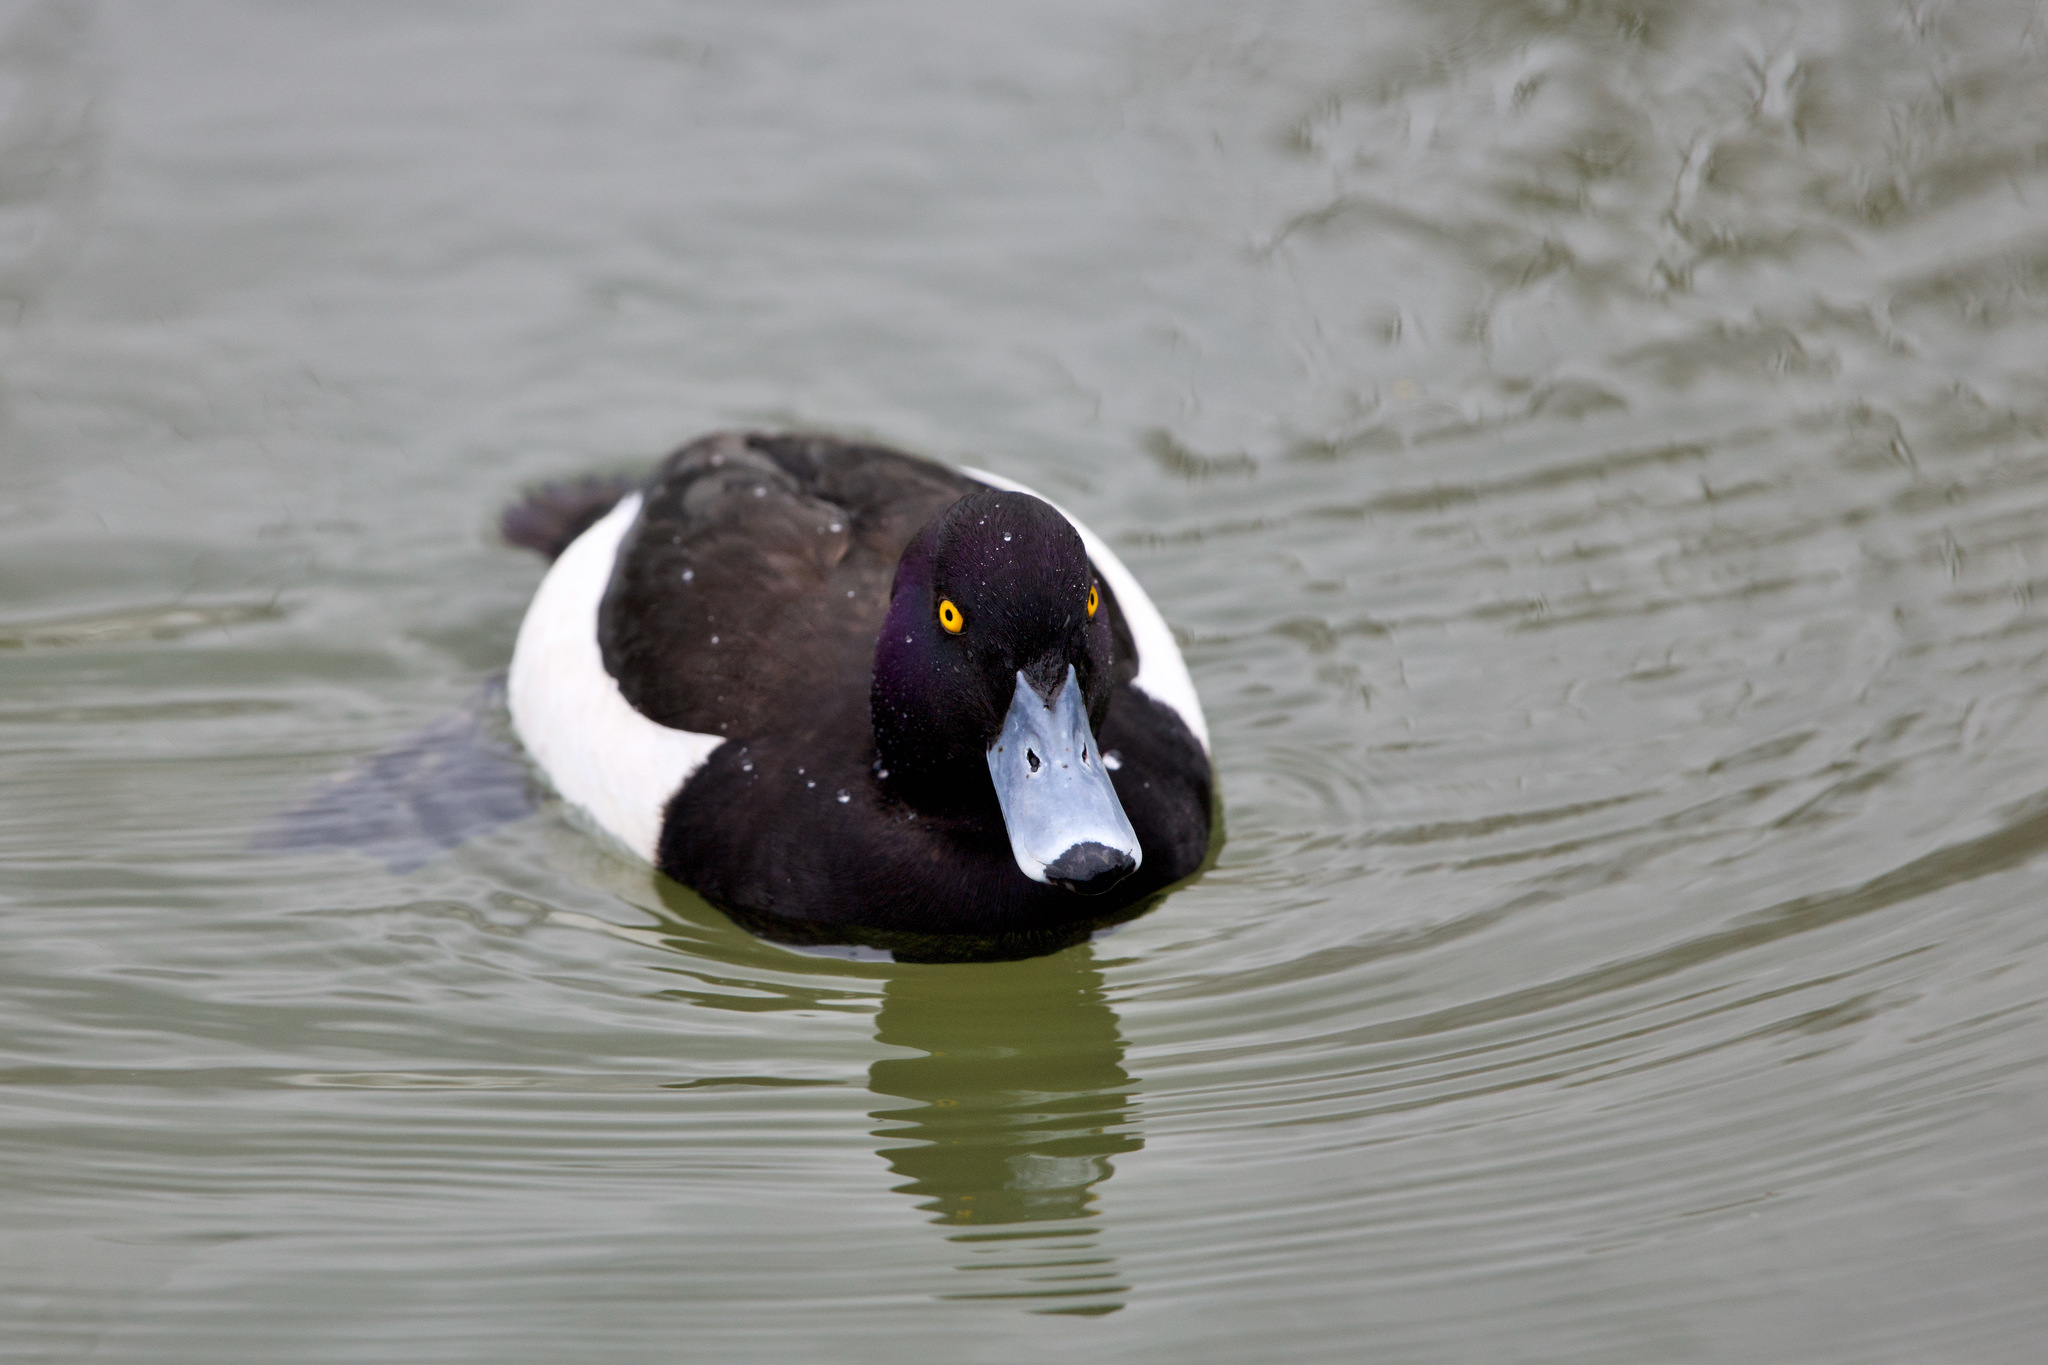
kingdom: Animalia
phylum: Chordata
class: Aves
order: Anseriformes
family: Anatidae
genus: Aythya
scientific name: Aythya fuligula
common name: Tufted duck
